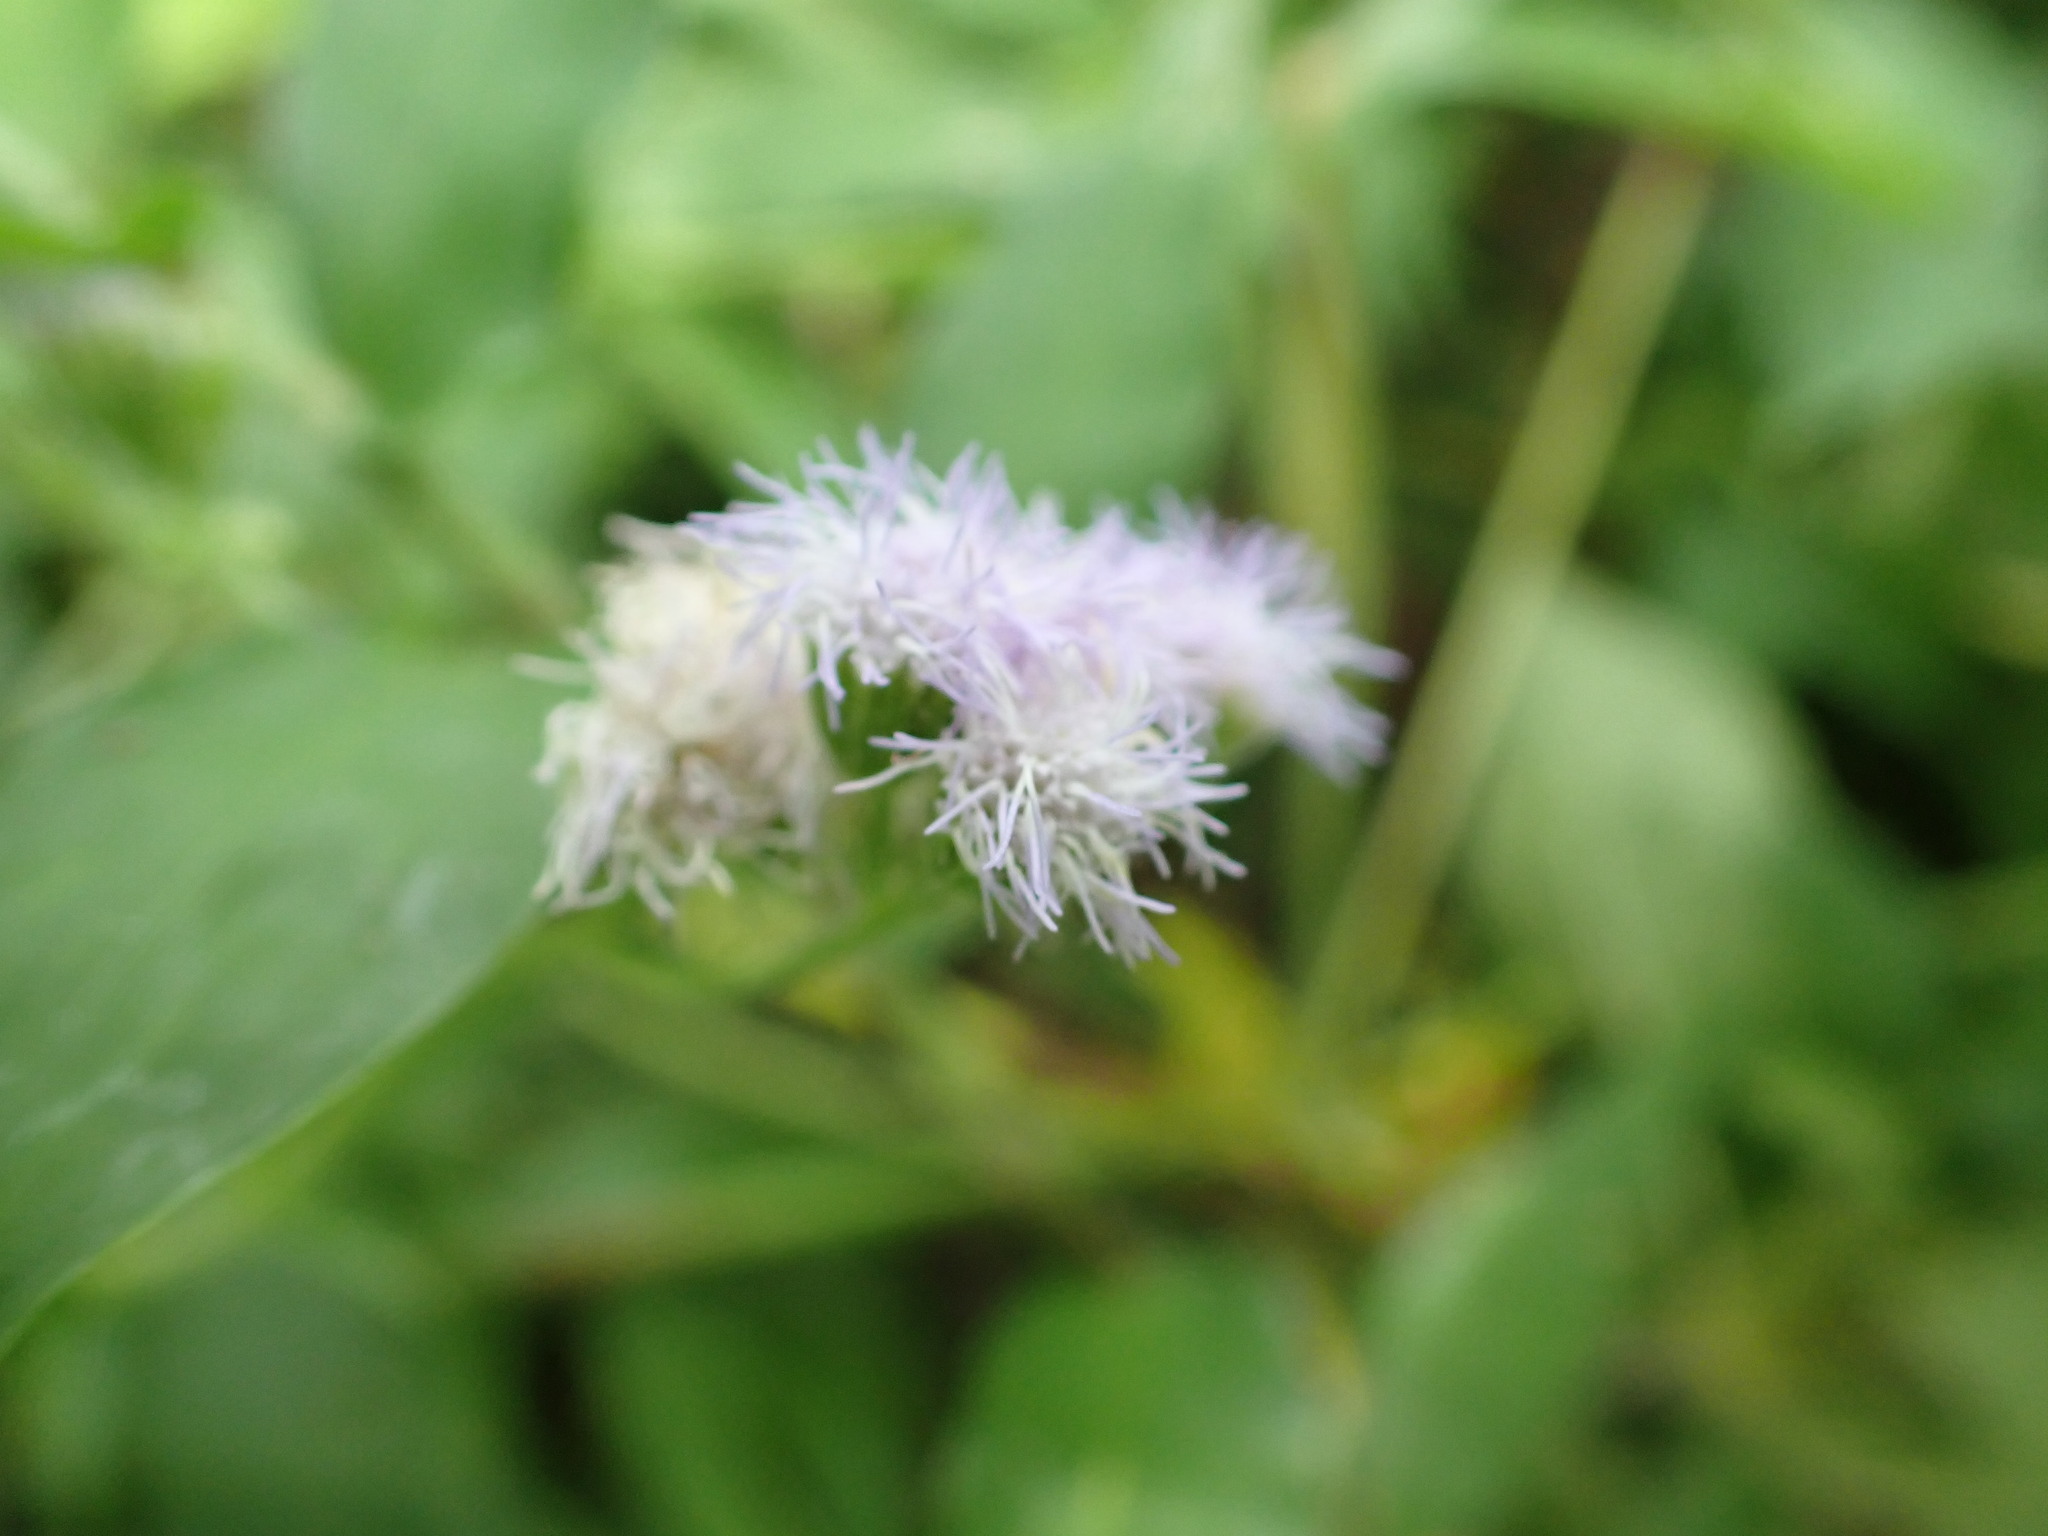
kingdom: Plantae
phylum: Tracheophyta
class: Magnoliopsida
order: Asterales
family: Asteraceae
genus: Ageratum
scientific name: Ageratum houstonianum
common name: Bluemink
